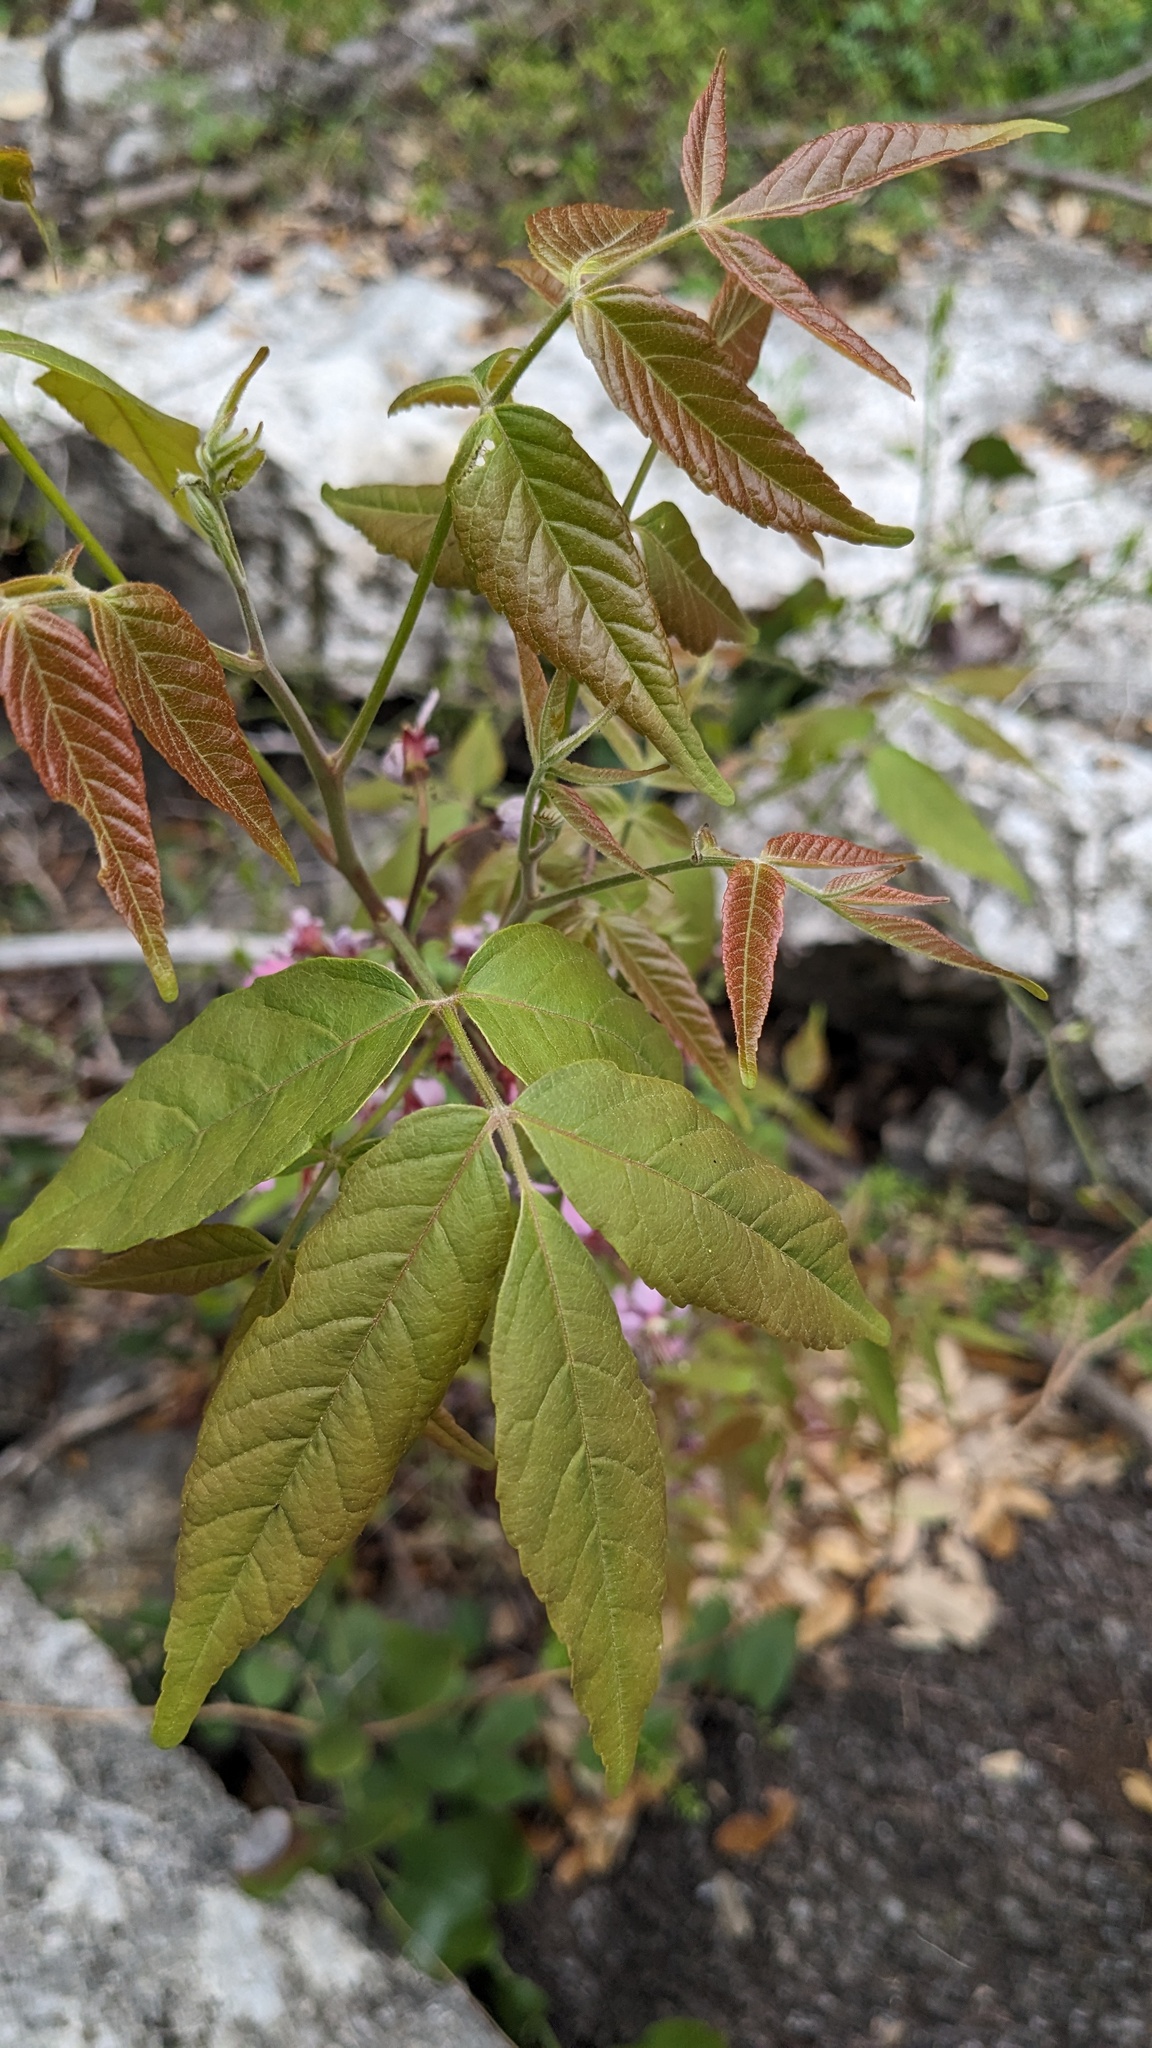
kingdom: Plantae
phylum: Tracheophyta
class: Magnoliopsida
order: Sapindales
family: Sapindaceae
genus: Ungnadia
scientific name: Ungnadia speciosa
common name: Texas-buckeye
